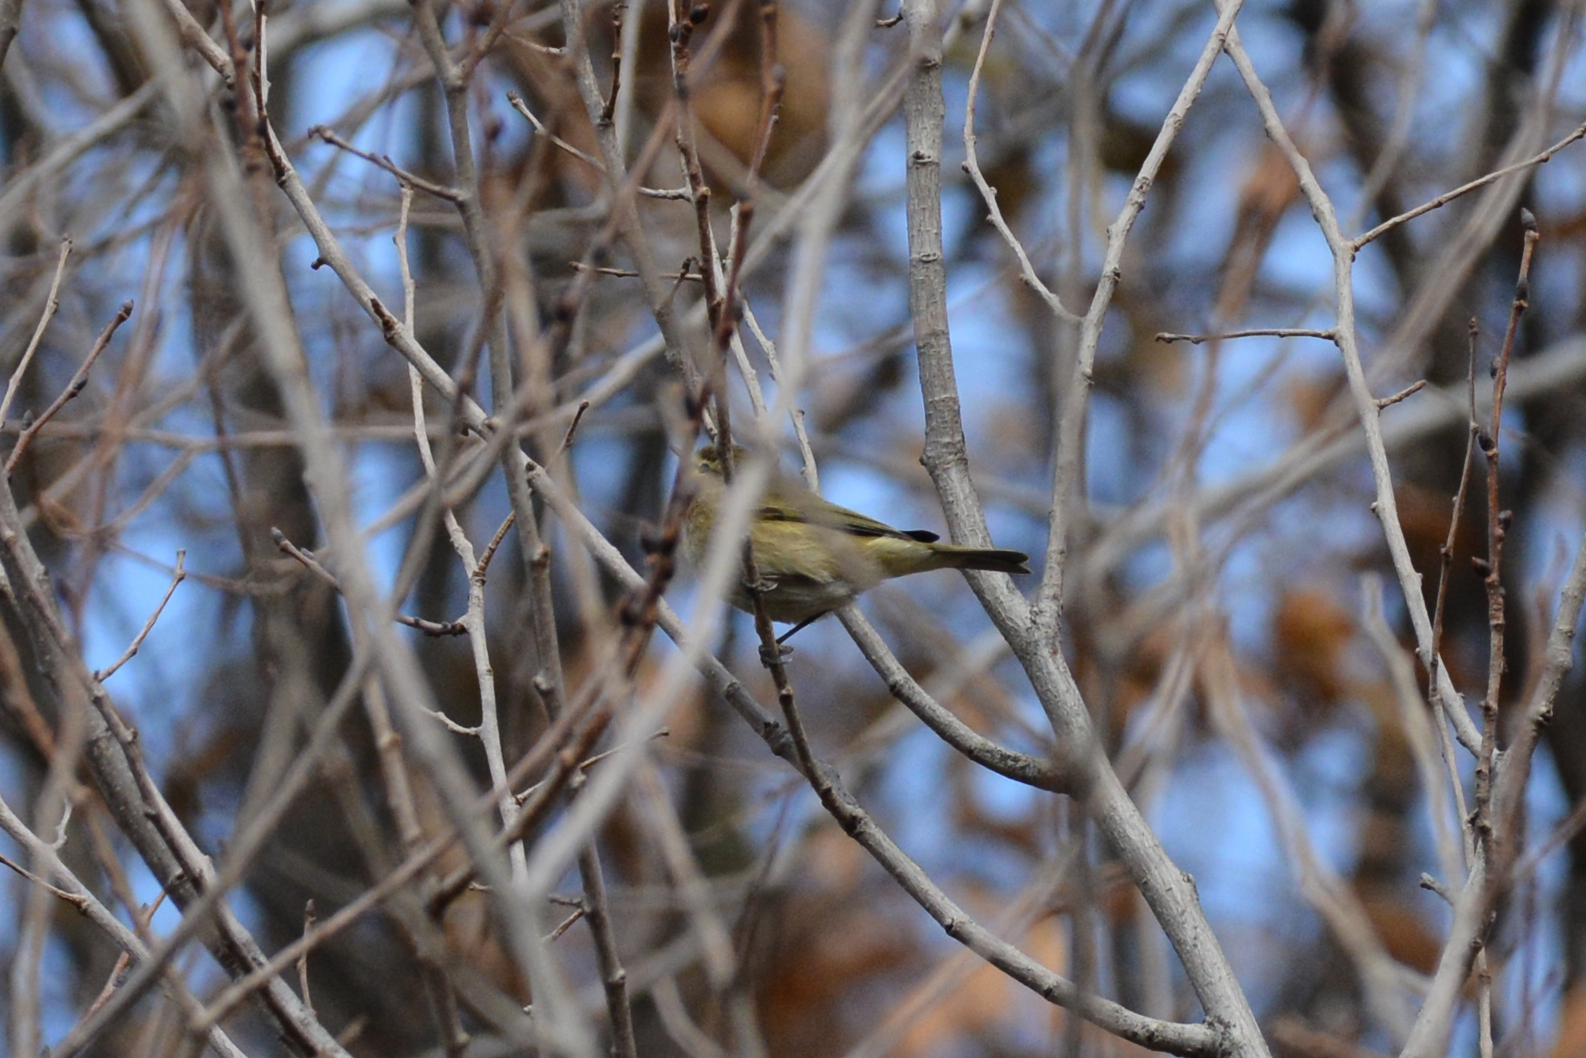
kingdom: Animalia
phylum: Chordata
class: Aves
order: Passeriformes
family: Phylloscopidae
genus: Phylloscopus
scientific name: Phylloscopus collybita
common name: Common chiffchaff
